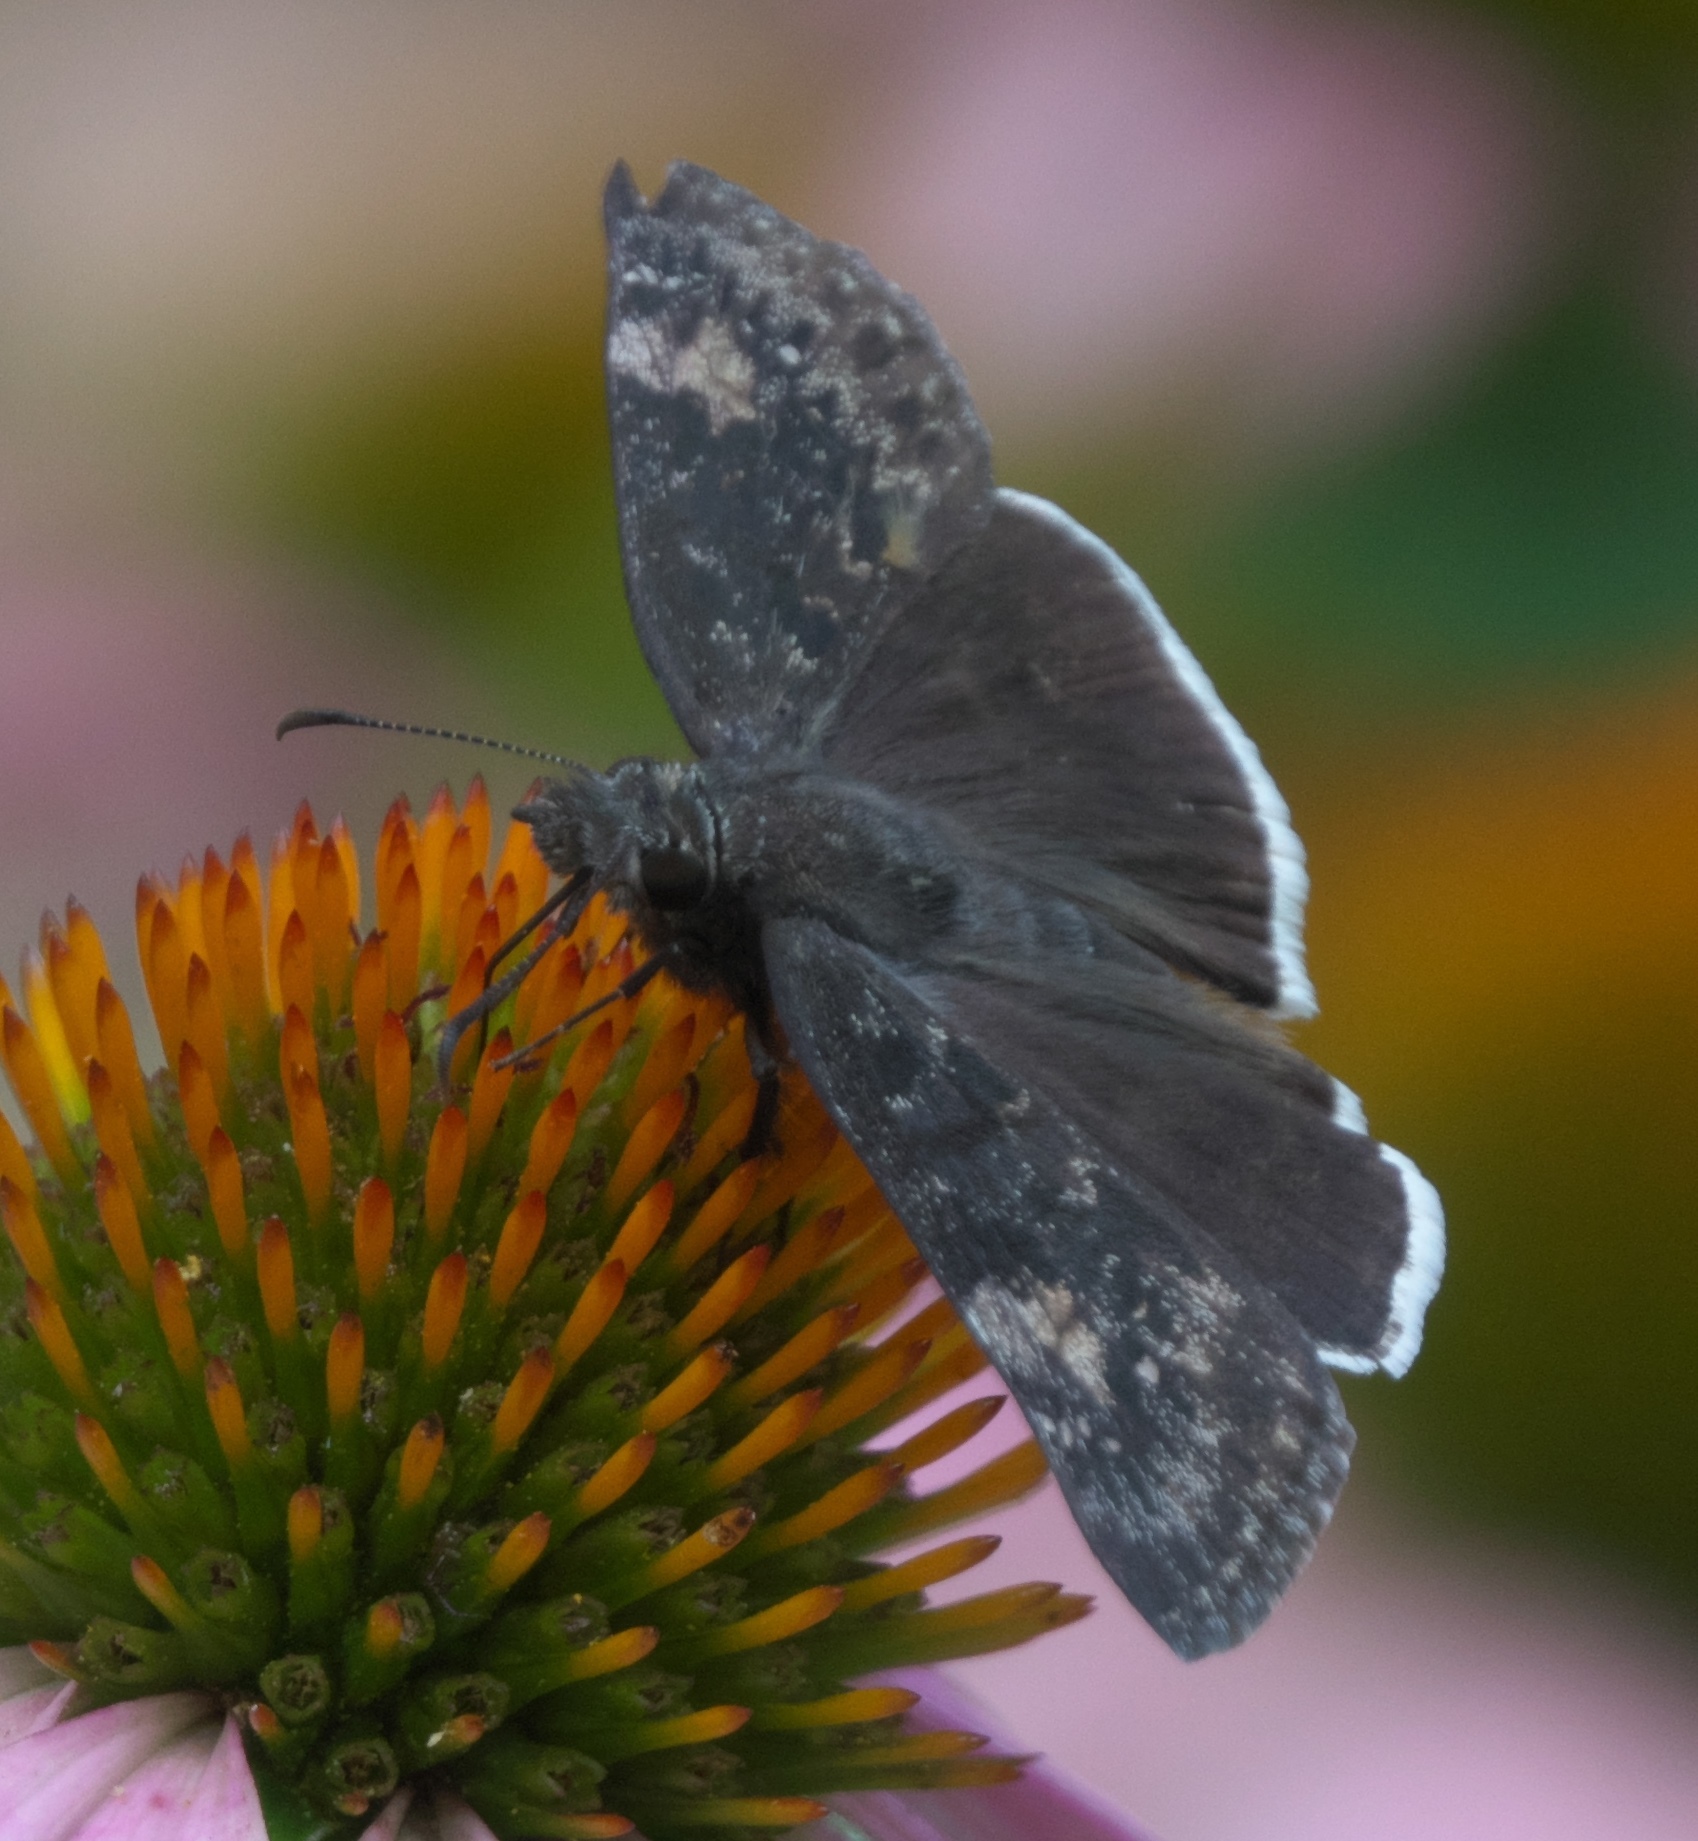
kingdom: Animalia
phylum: Arthropoda
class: Insecta
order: Lepidoptera
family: Hesperiidae
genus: Erynnis
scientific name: Erynnis funeralis
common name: Funereal duskywing
